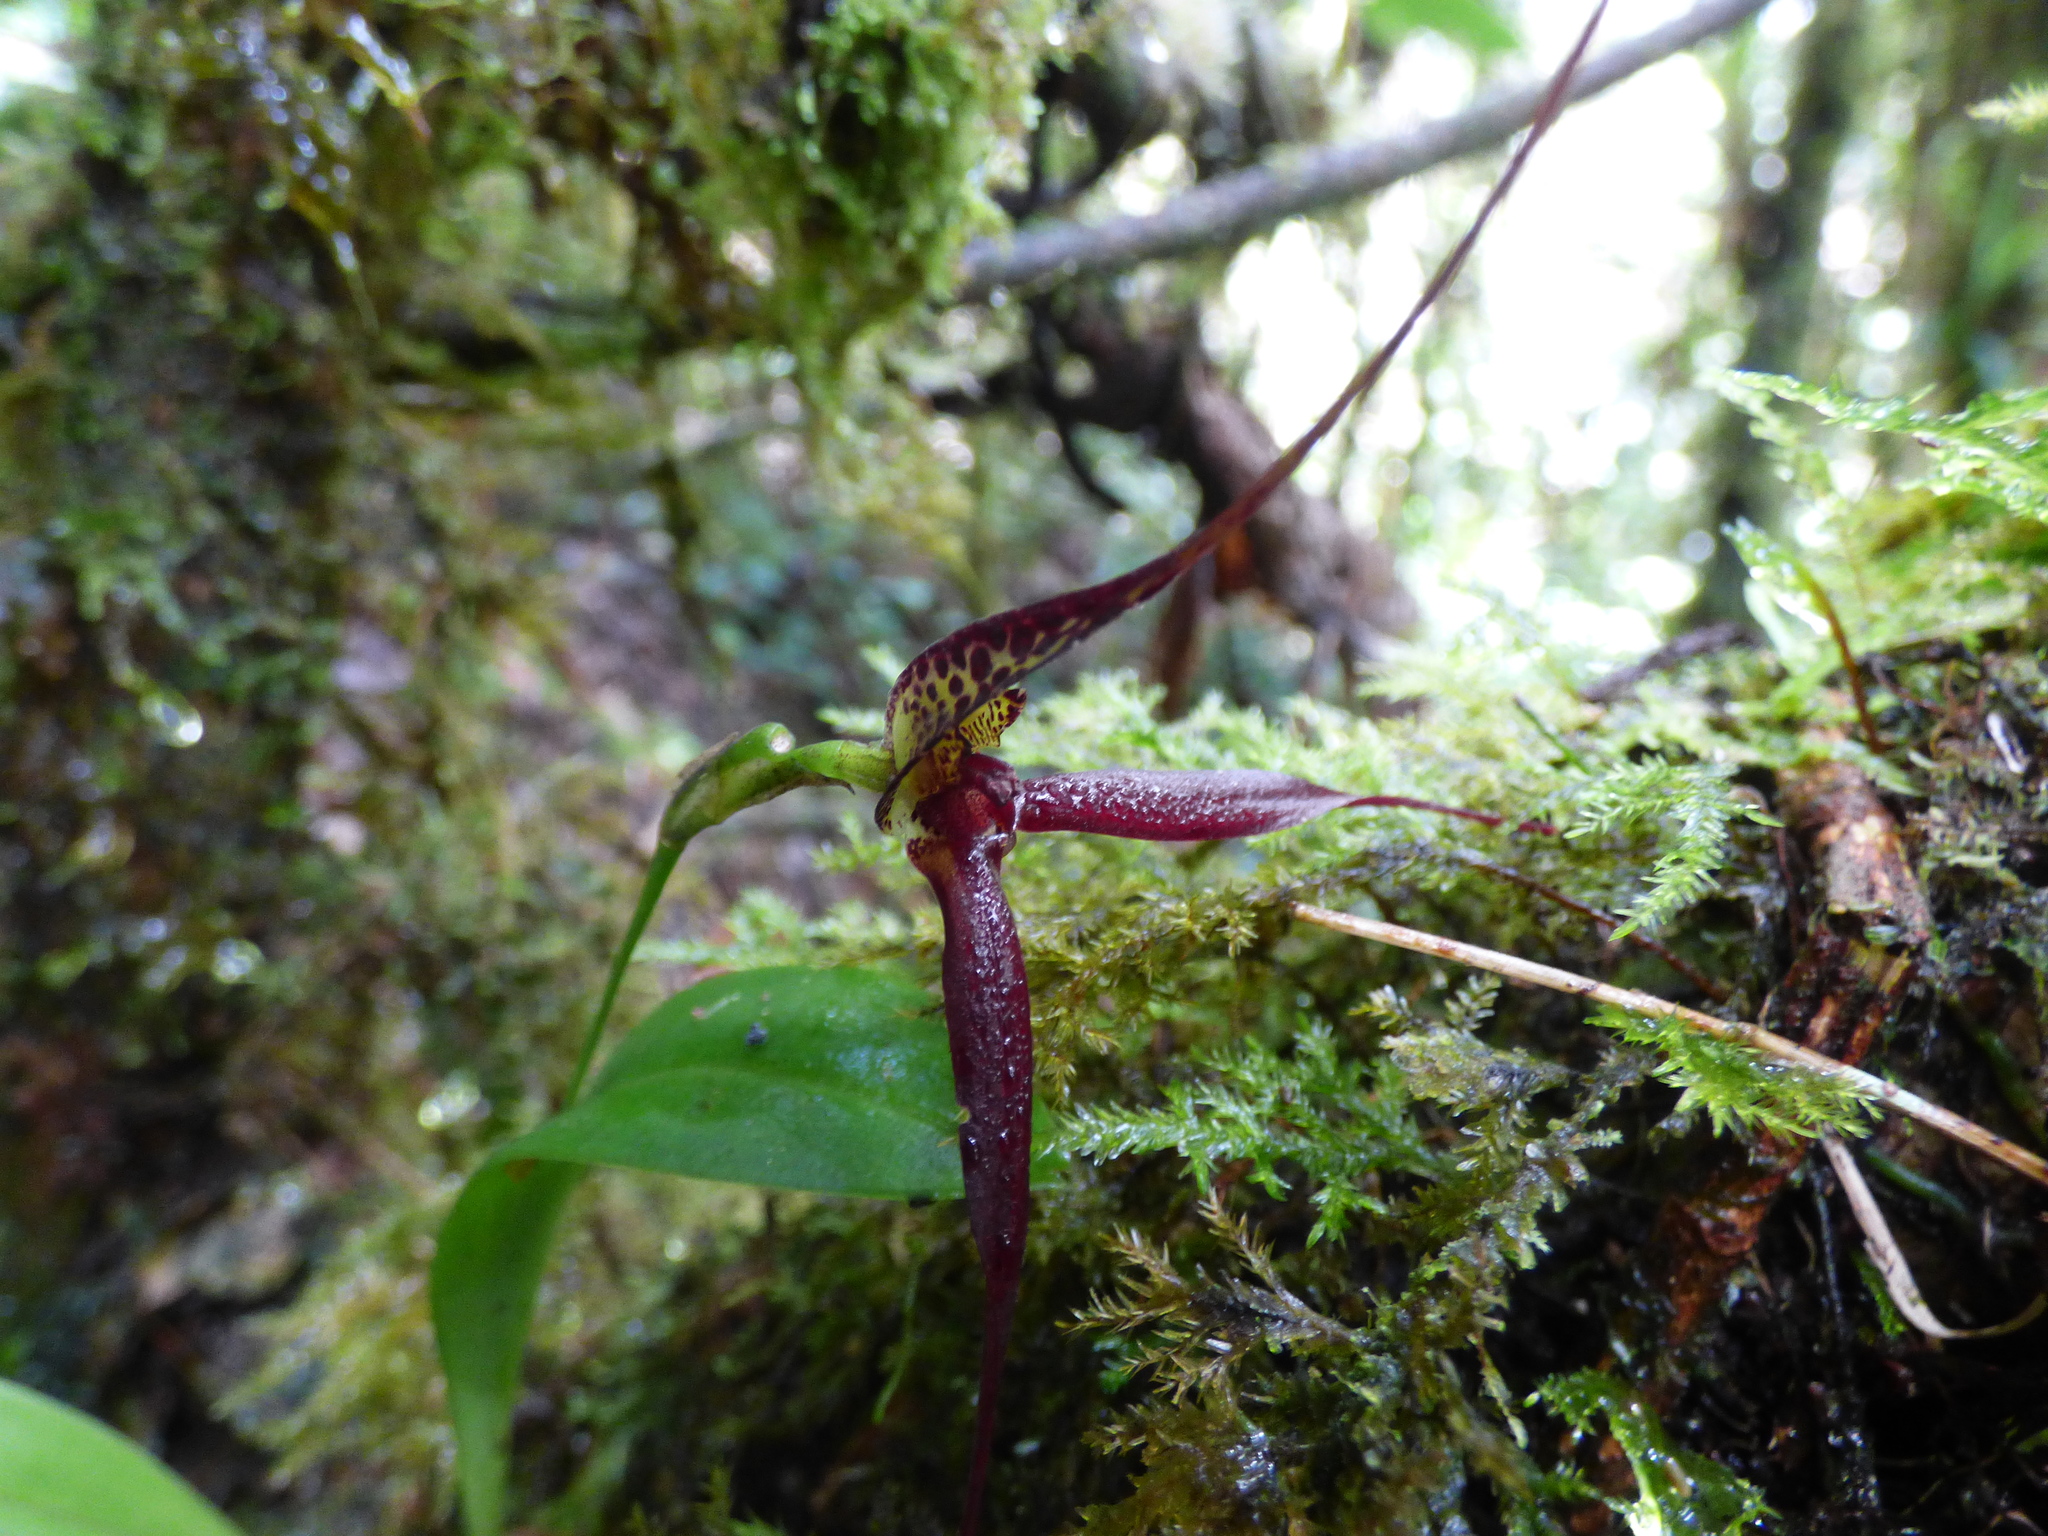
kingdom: Plantae
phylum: Tracheophyta
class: Liliopsida
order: Asparagales
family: Orchidaceae
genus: Masdevallia
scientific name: Masdevallia heteroptera
